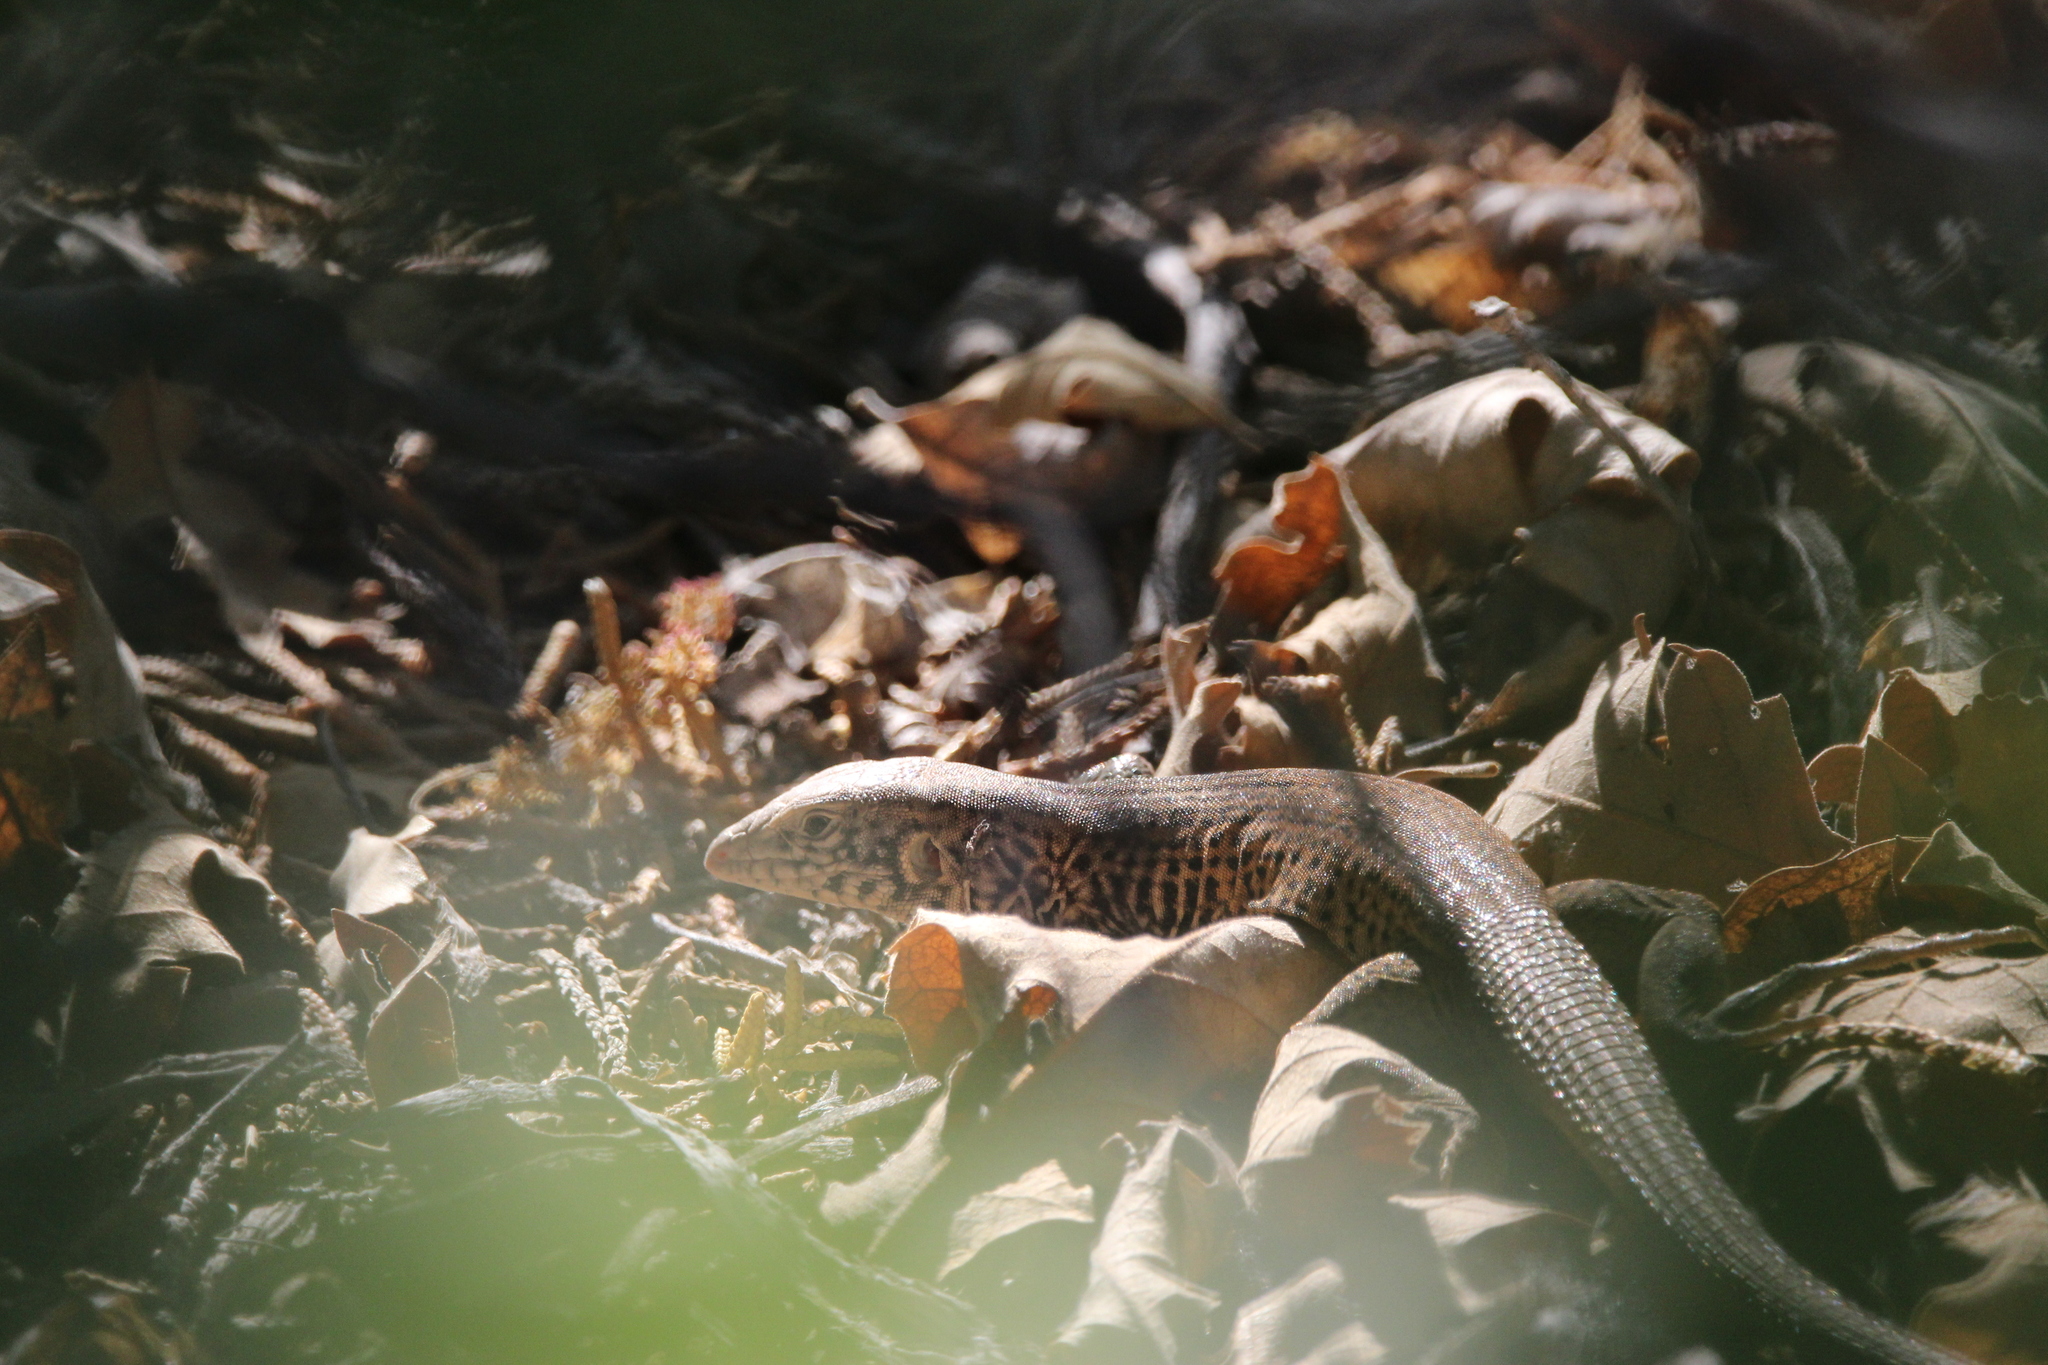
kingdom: Animalia
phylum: Chordata
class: Squamata
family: Teiidae
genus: Aspidoscelis
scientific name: Aspidoscelis tigris
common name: Tiger whiptail
